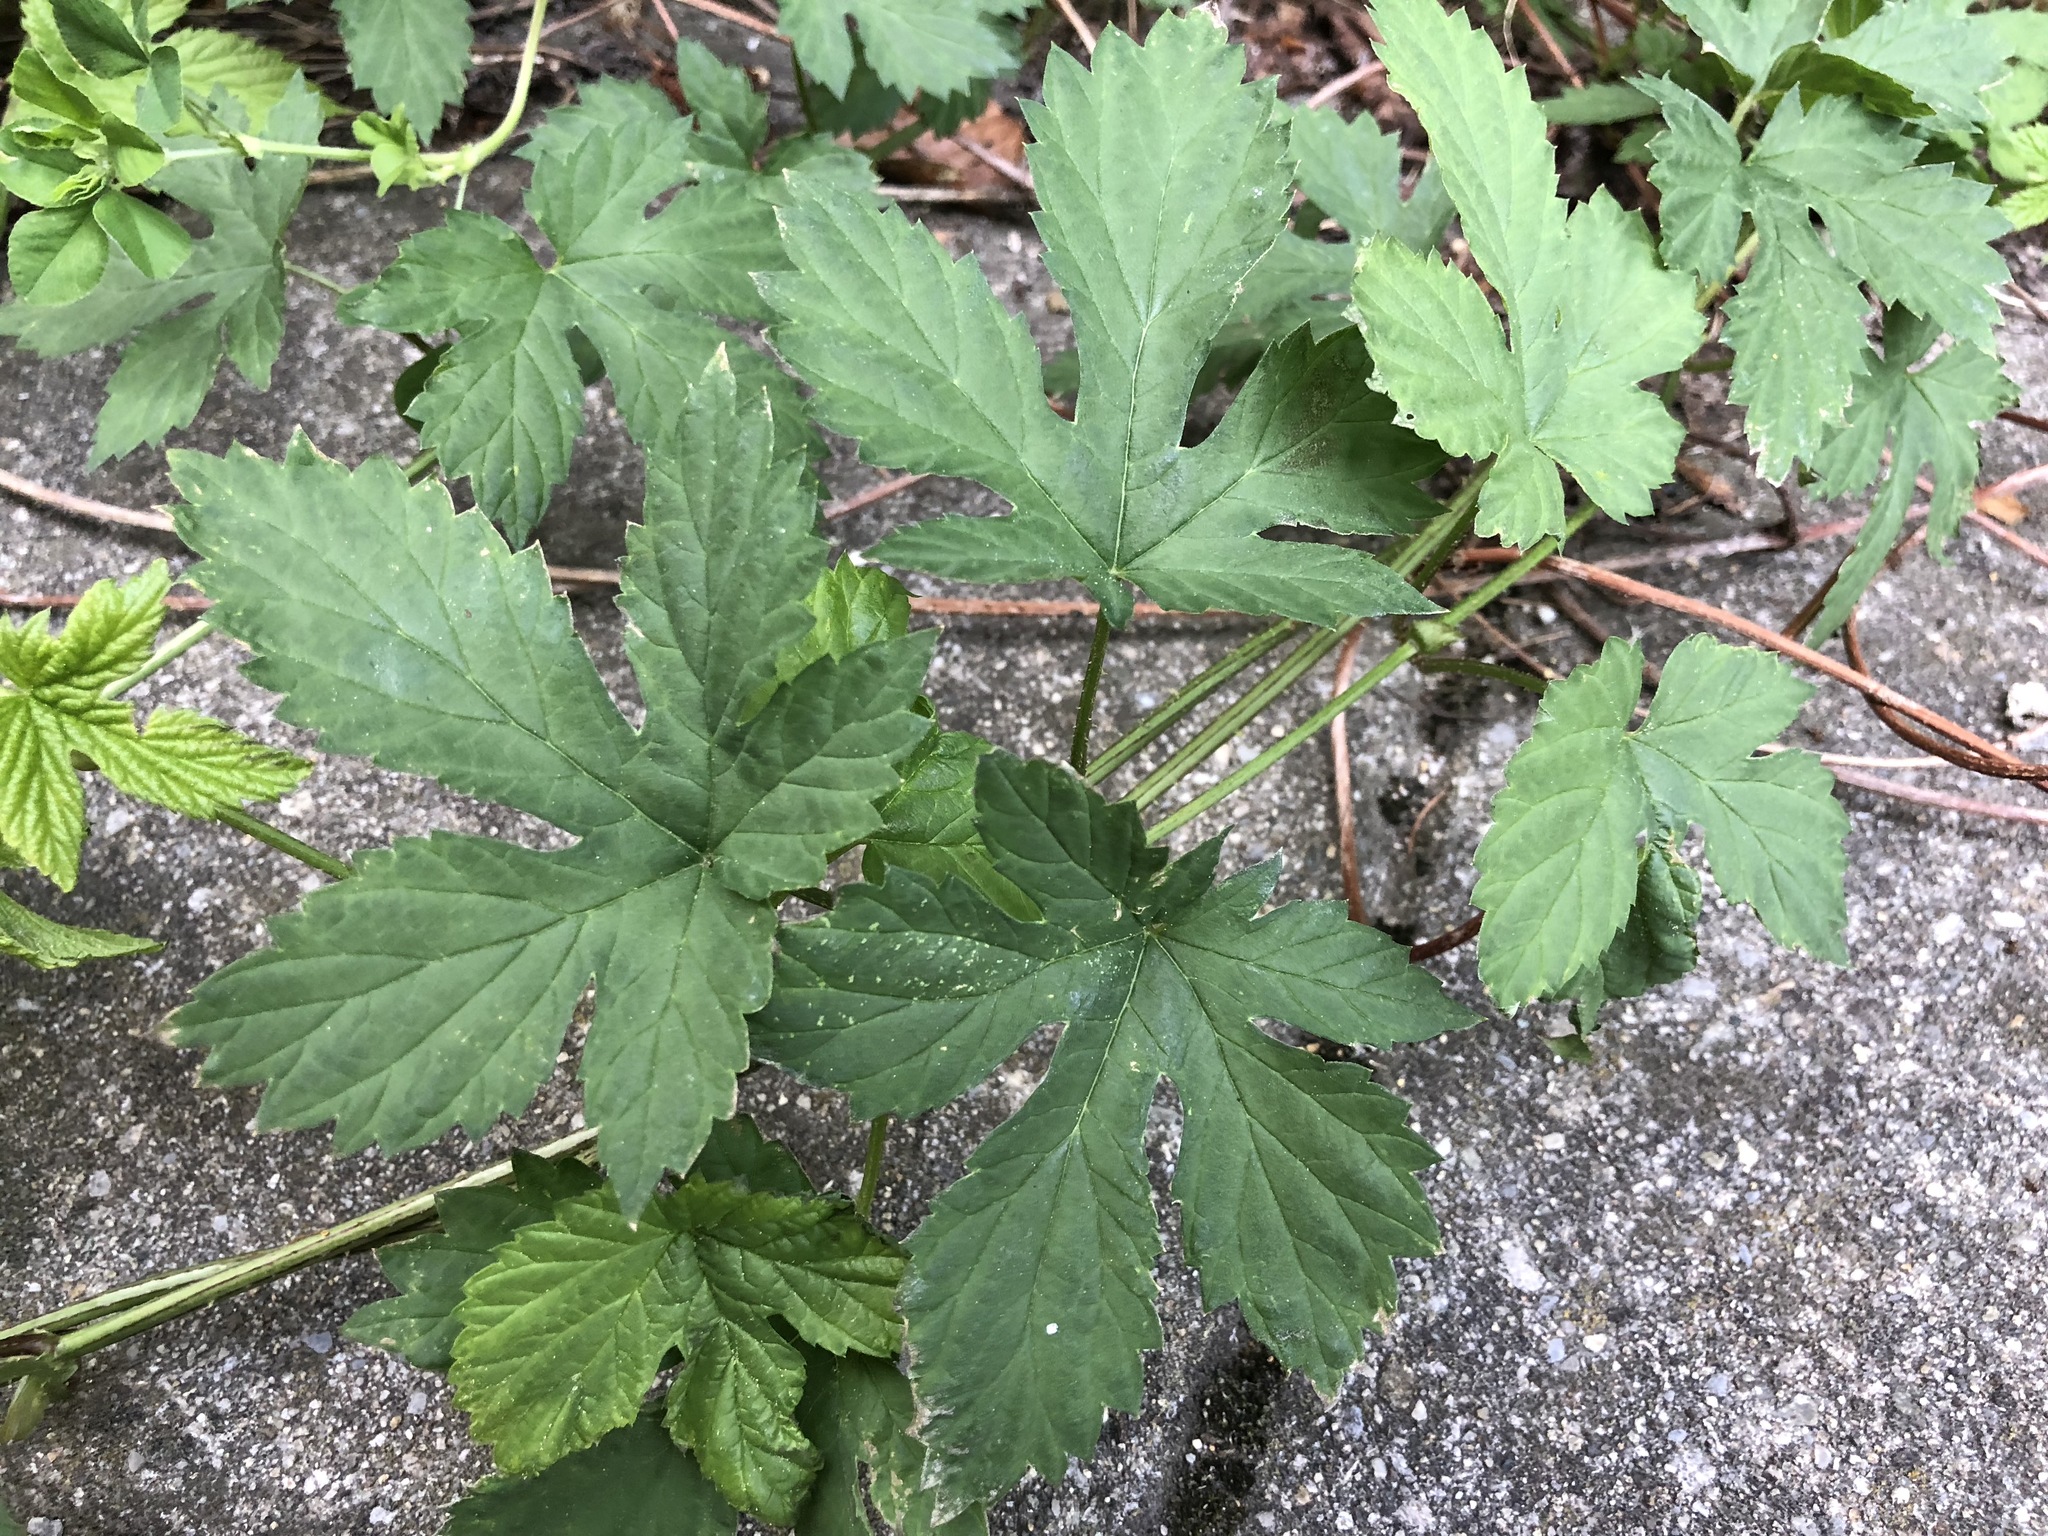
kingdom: Plantae
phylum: Tracheophyta
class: Magnoliopsida
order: Rosales
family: Cannabaceae
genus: Humulus
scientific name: Humulus lupulus
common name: Hop
